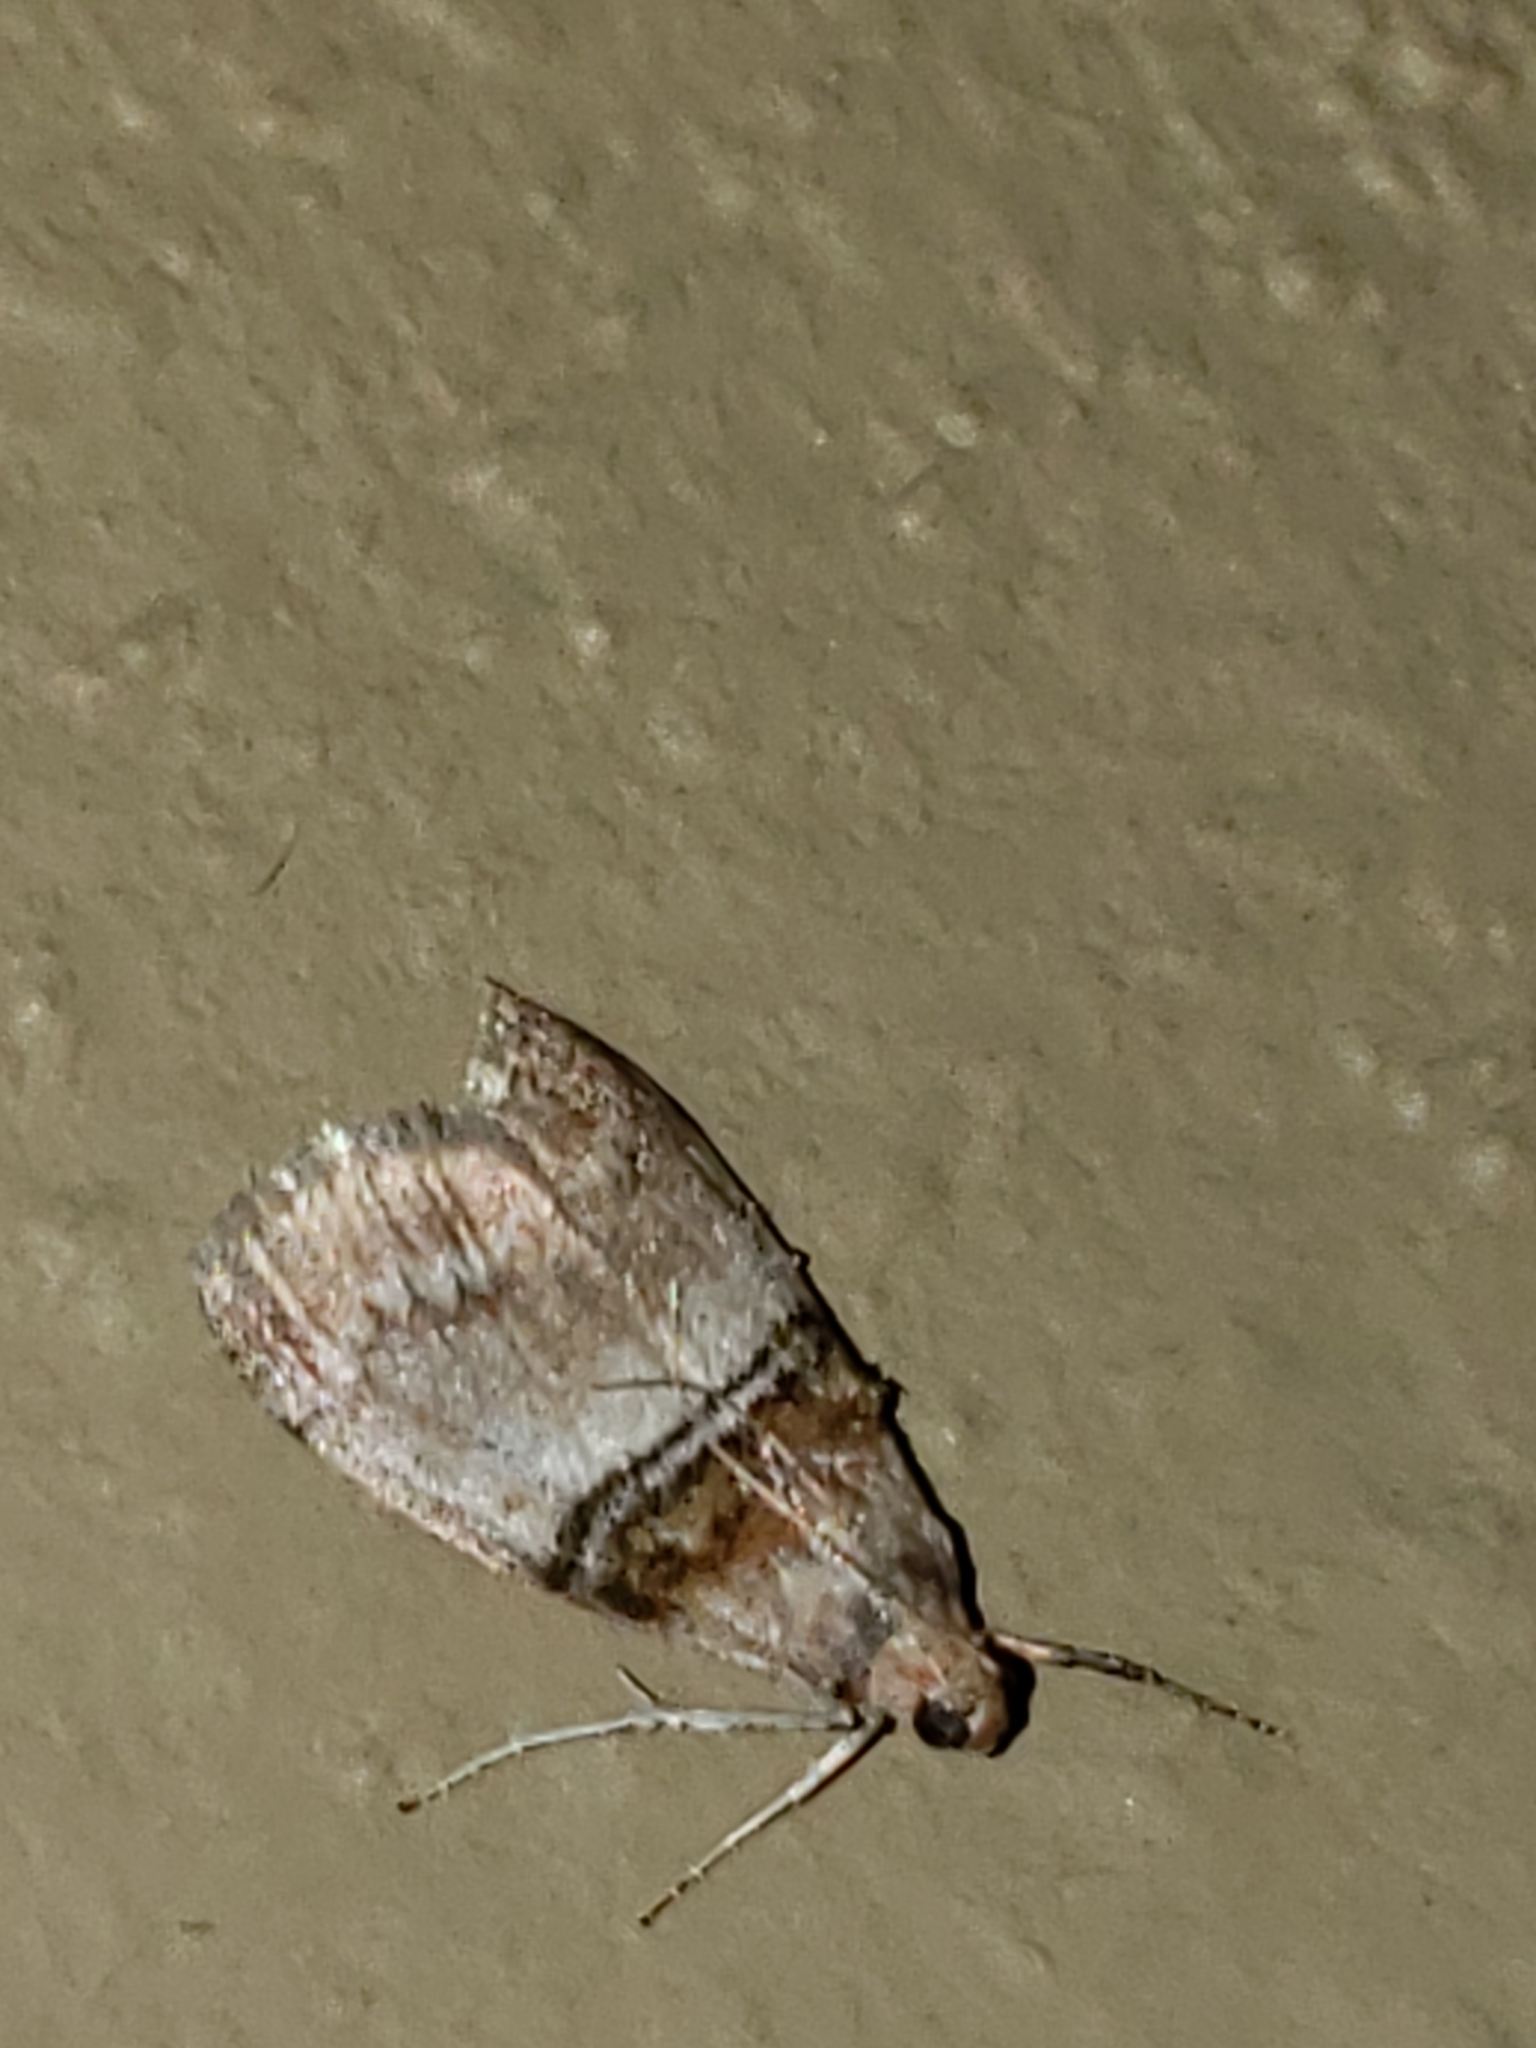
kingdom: Animalia
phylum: Arthropoda
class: Insecta
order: Lepidoptera
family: Pyralidae
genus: Pococera
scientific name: Pococera militella
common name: Sycamore webworm moth
